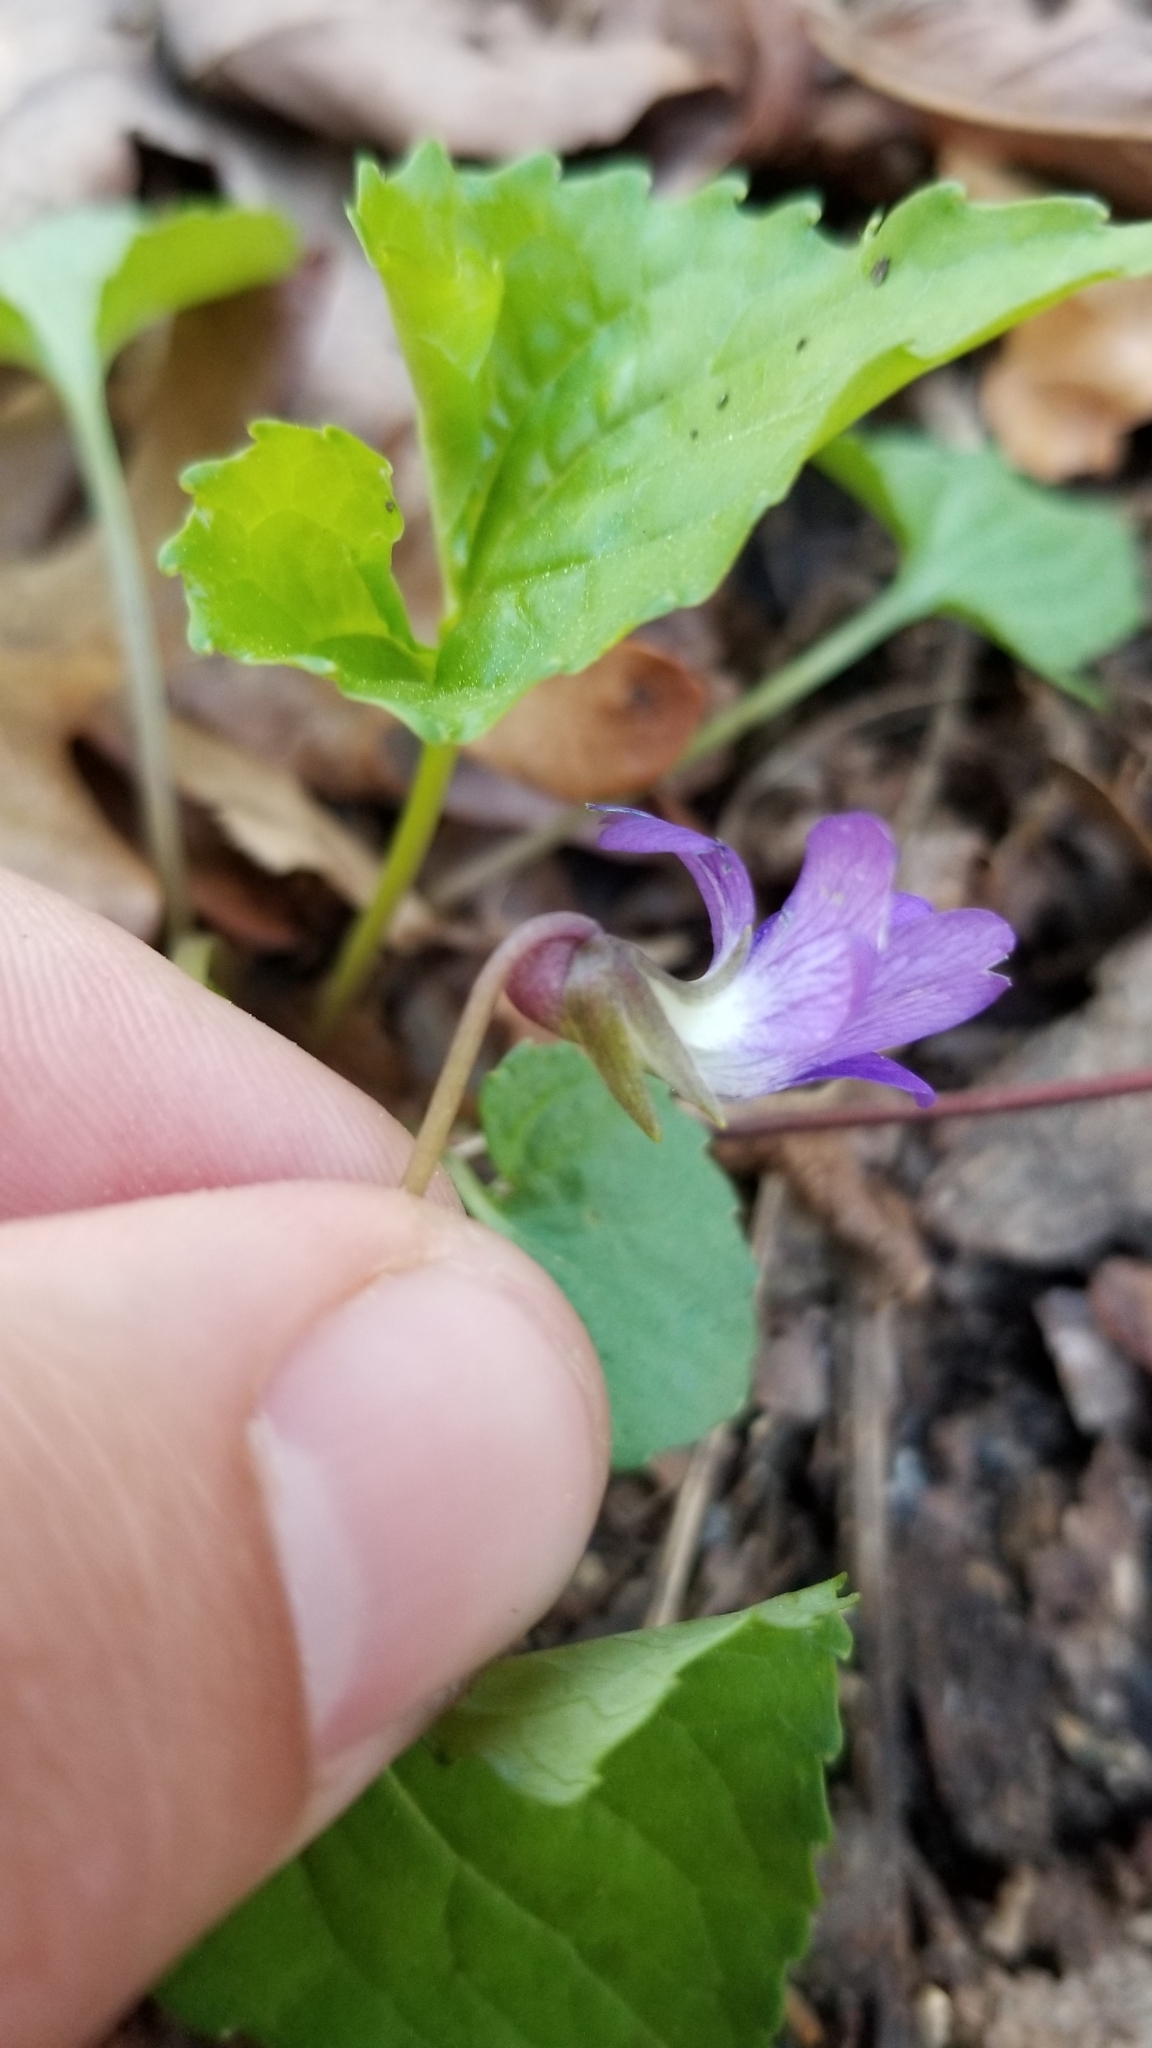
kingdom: Plantae
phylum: Tracheophyta
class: Magnoliopsida
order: Malpighiales
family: Violaceae
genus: Viola
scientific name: Viola sororia
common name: Dooryard violet
